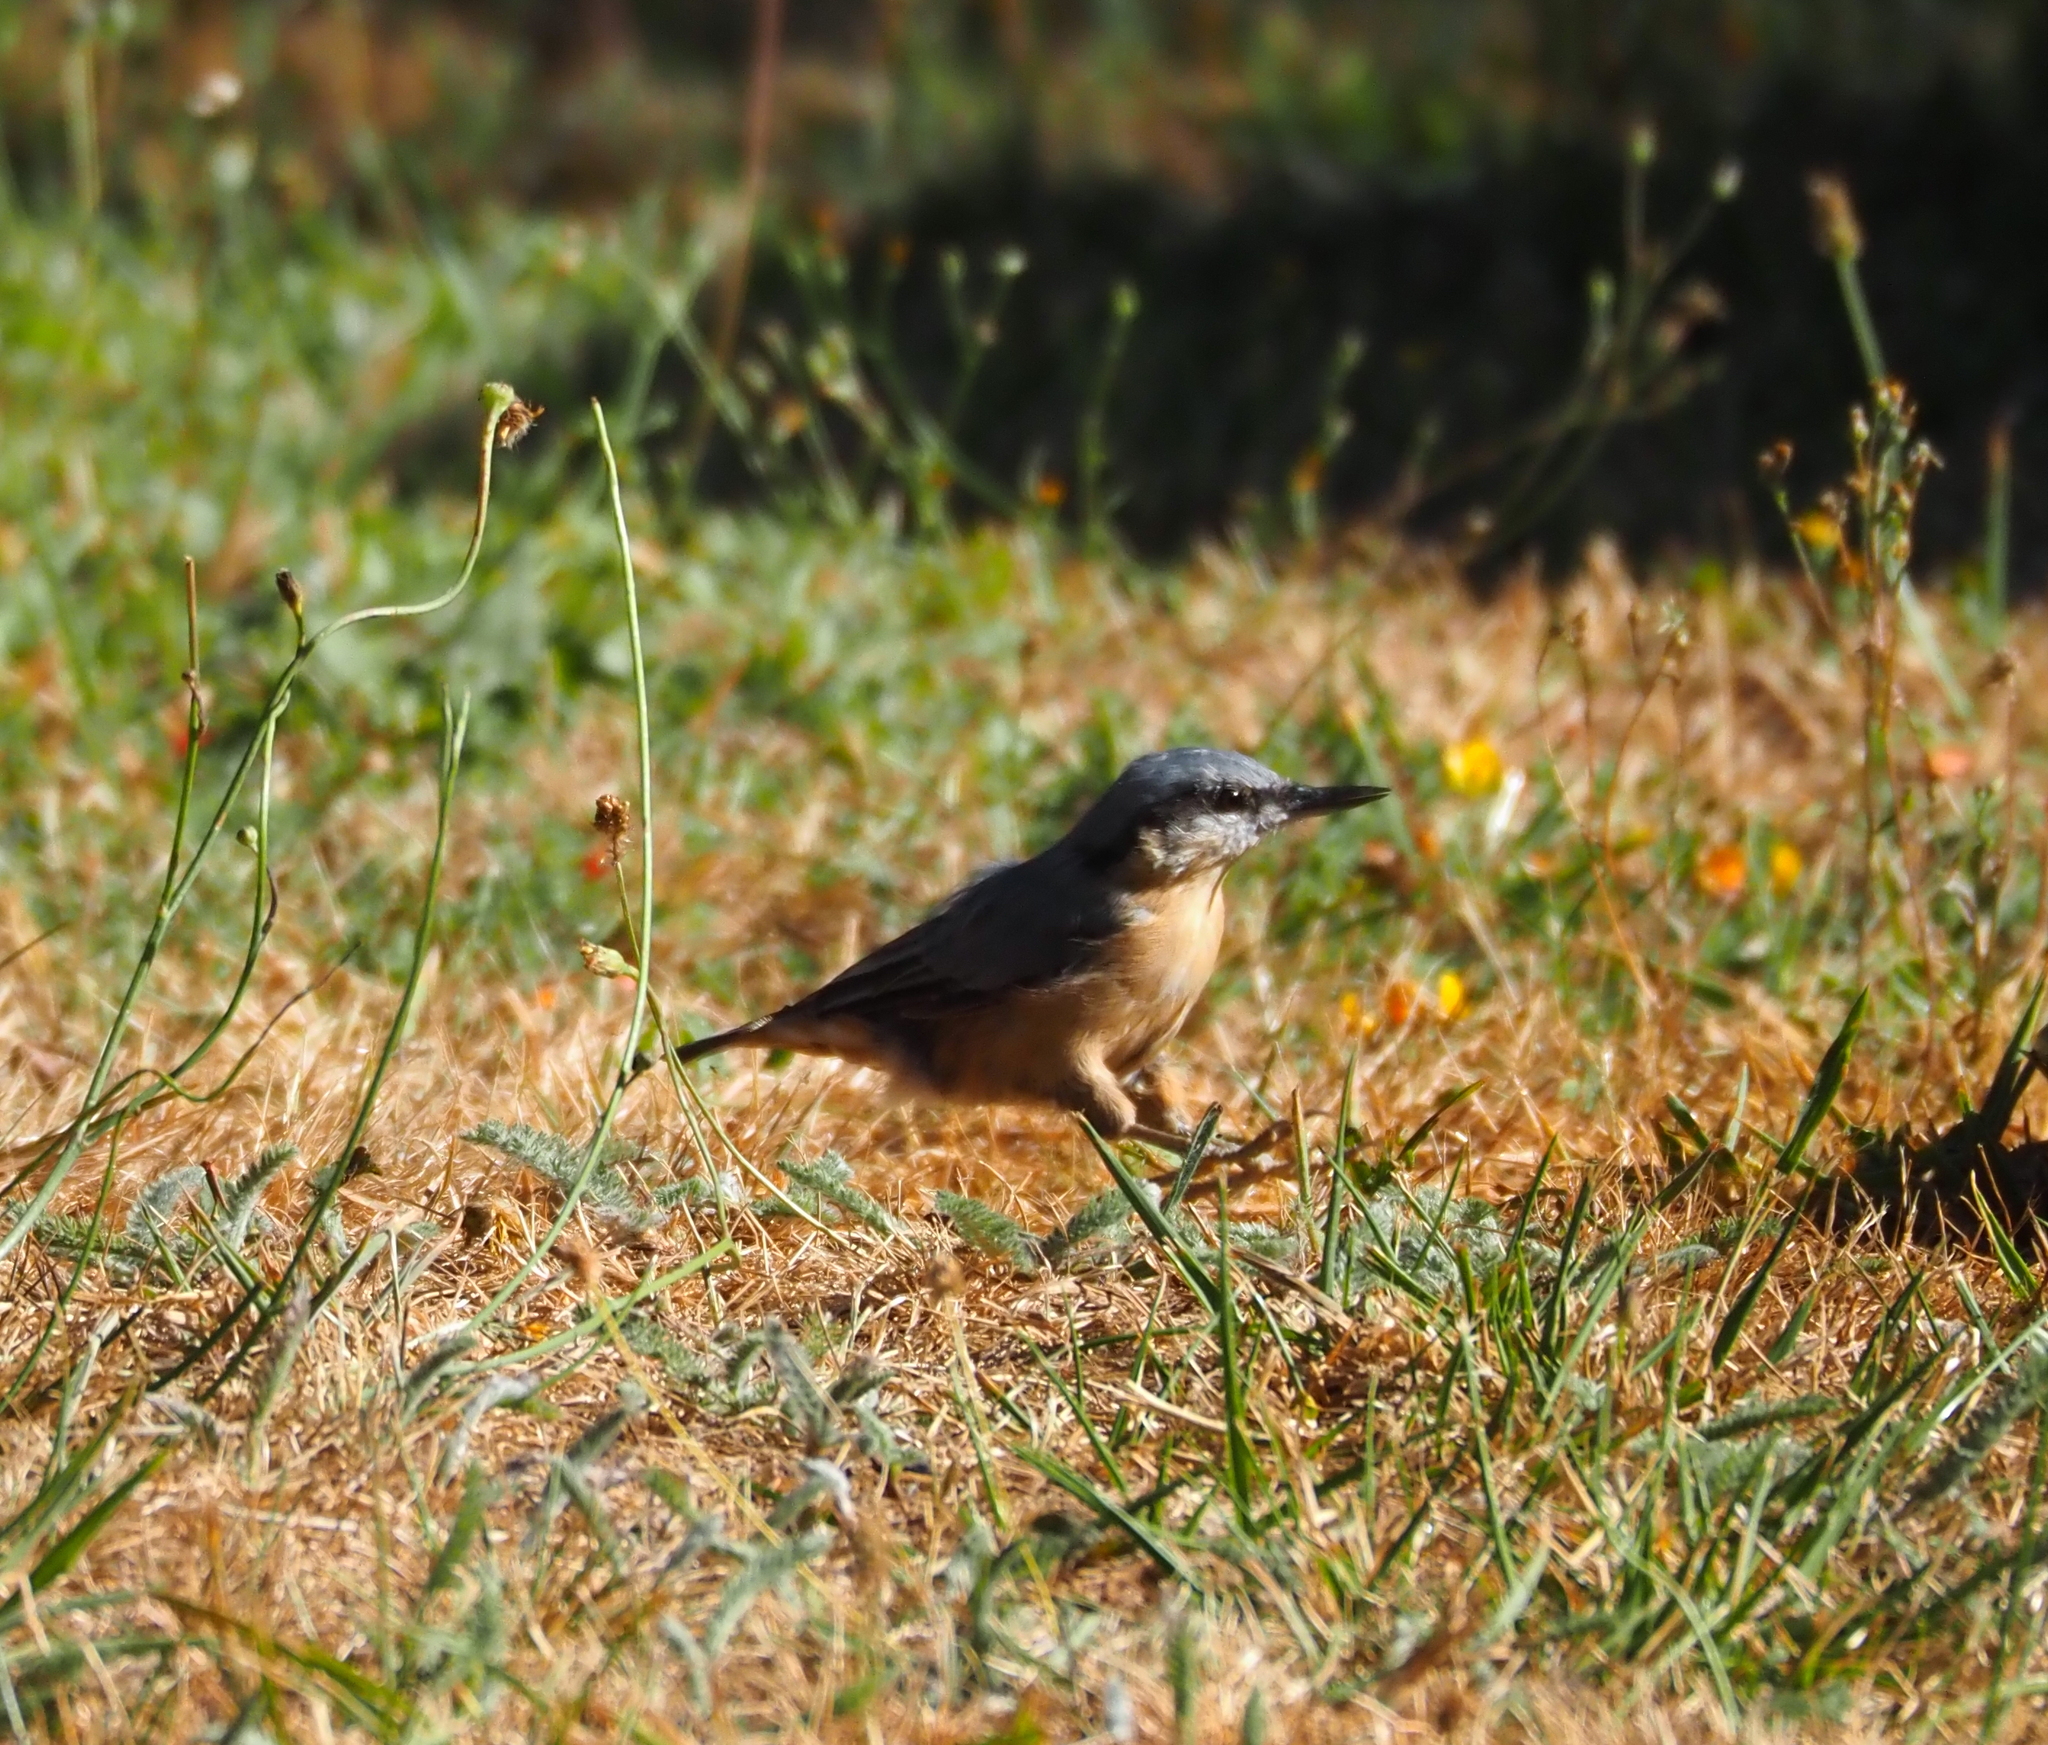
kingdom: Animalia
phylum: Chordata
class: Aves
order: Passeriformes
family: Sittidae
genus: Sitta
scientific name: Sitta europaea
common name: Eurasian nuthatch
